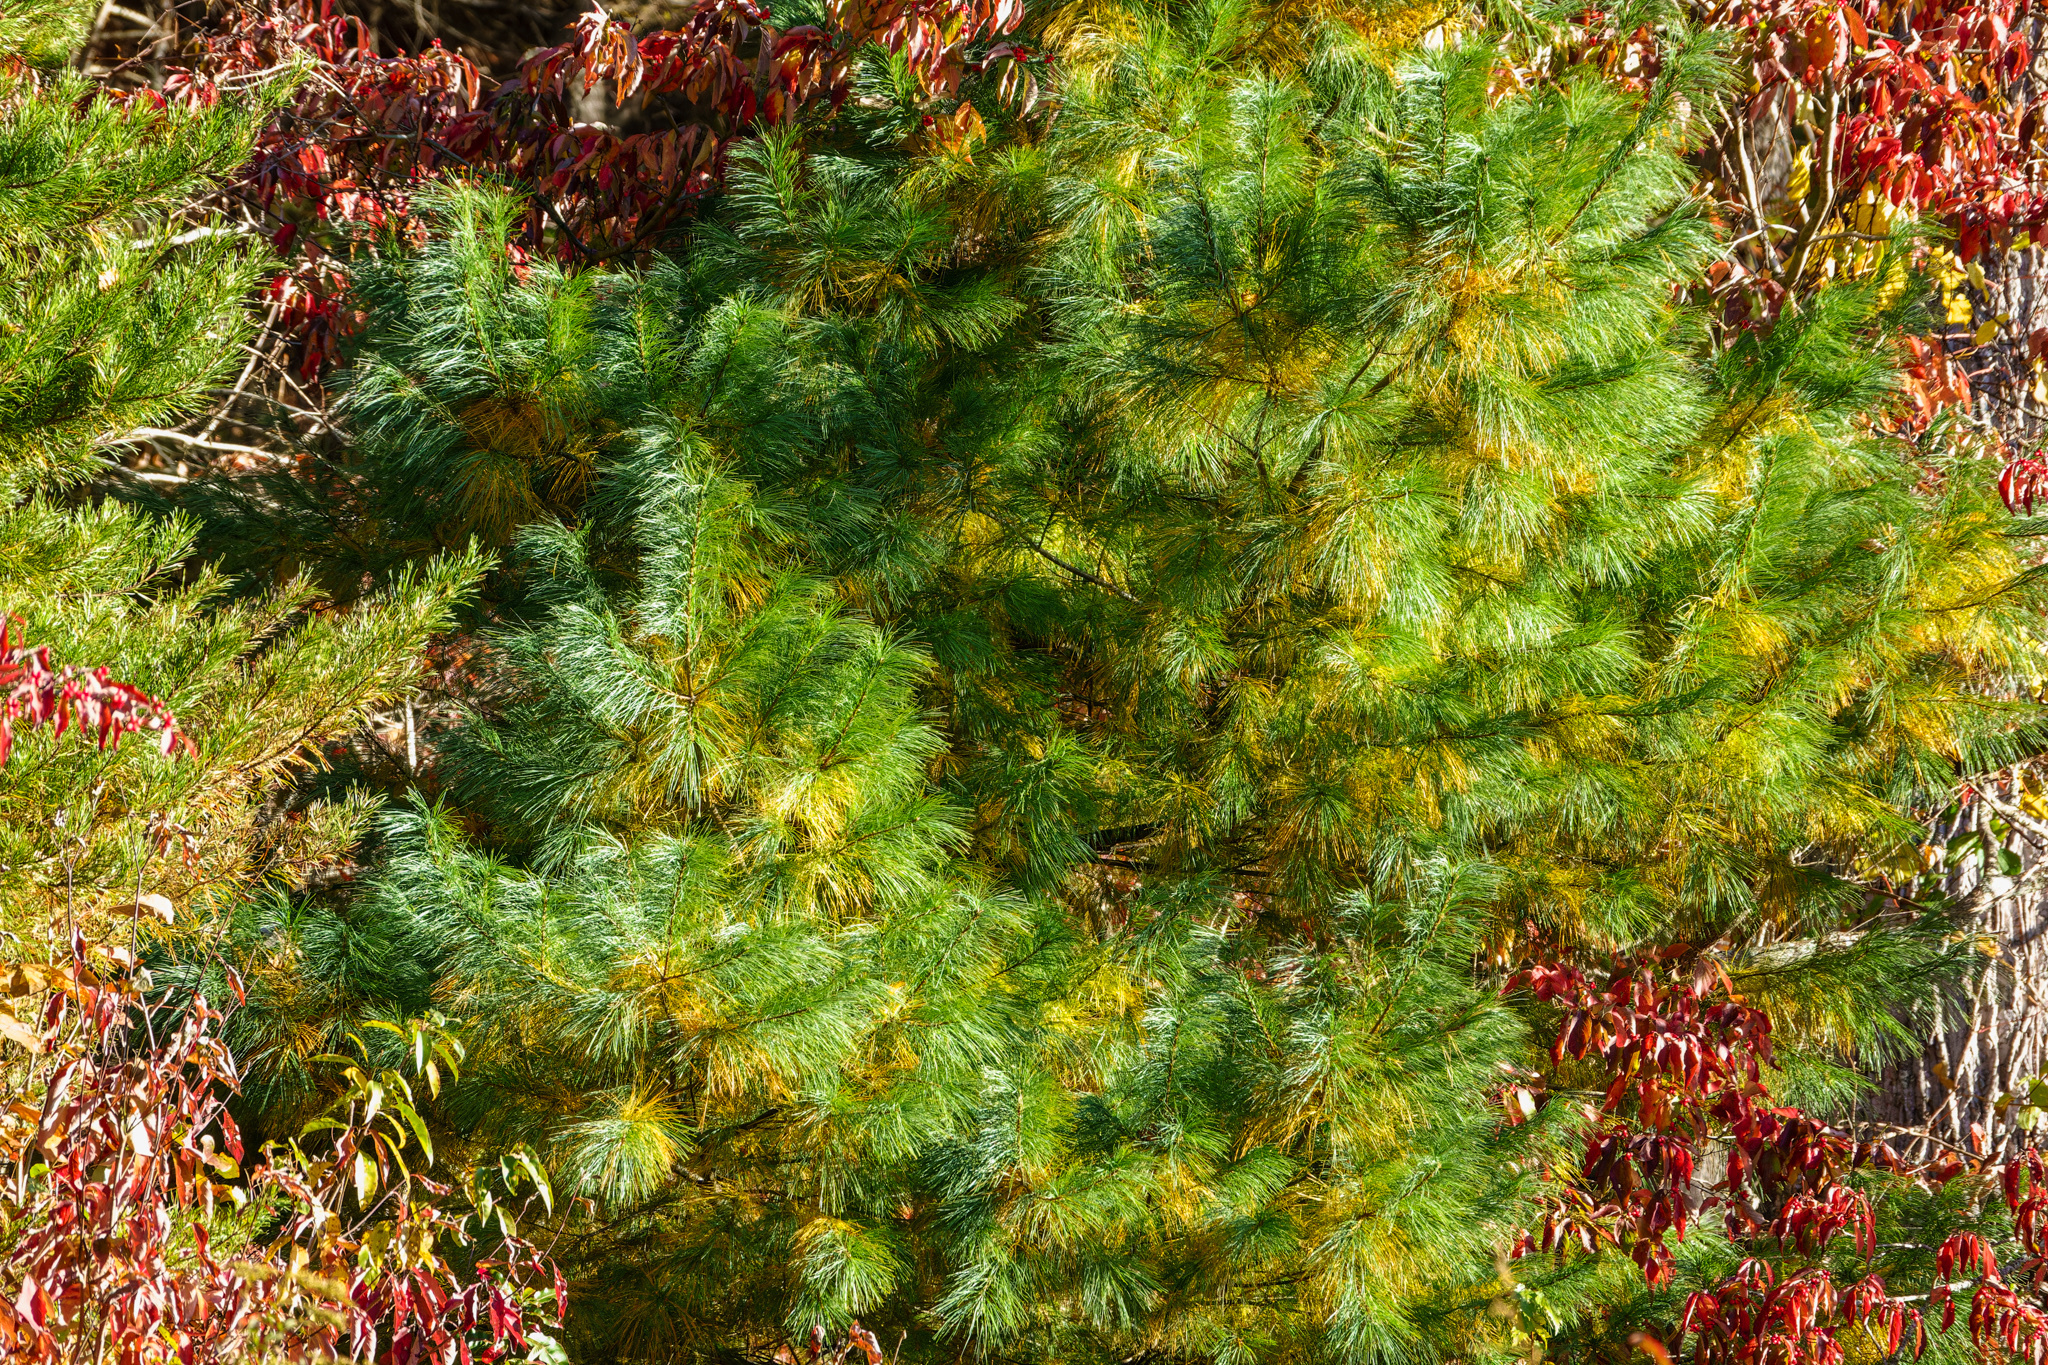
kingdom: Plantae
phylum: Tracheophyta
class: Pinopsida
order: Pinales
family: Pinaceae
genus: Pinus
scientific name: Pinus strobus
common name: Weymouth pine
